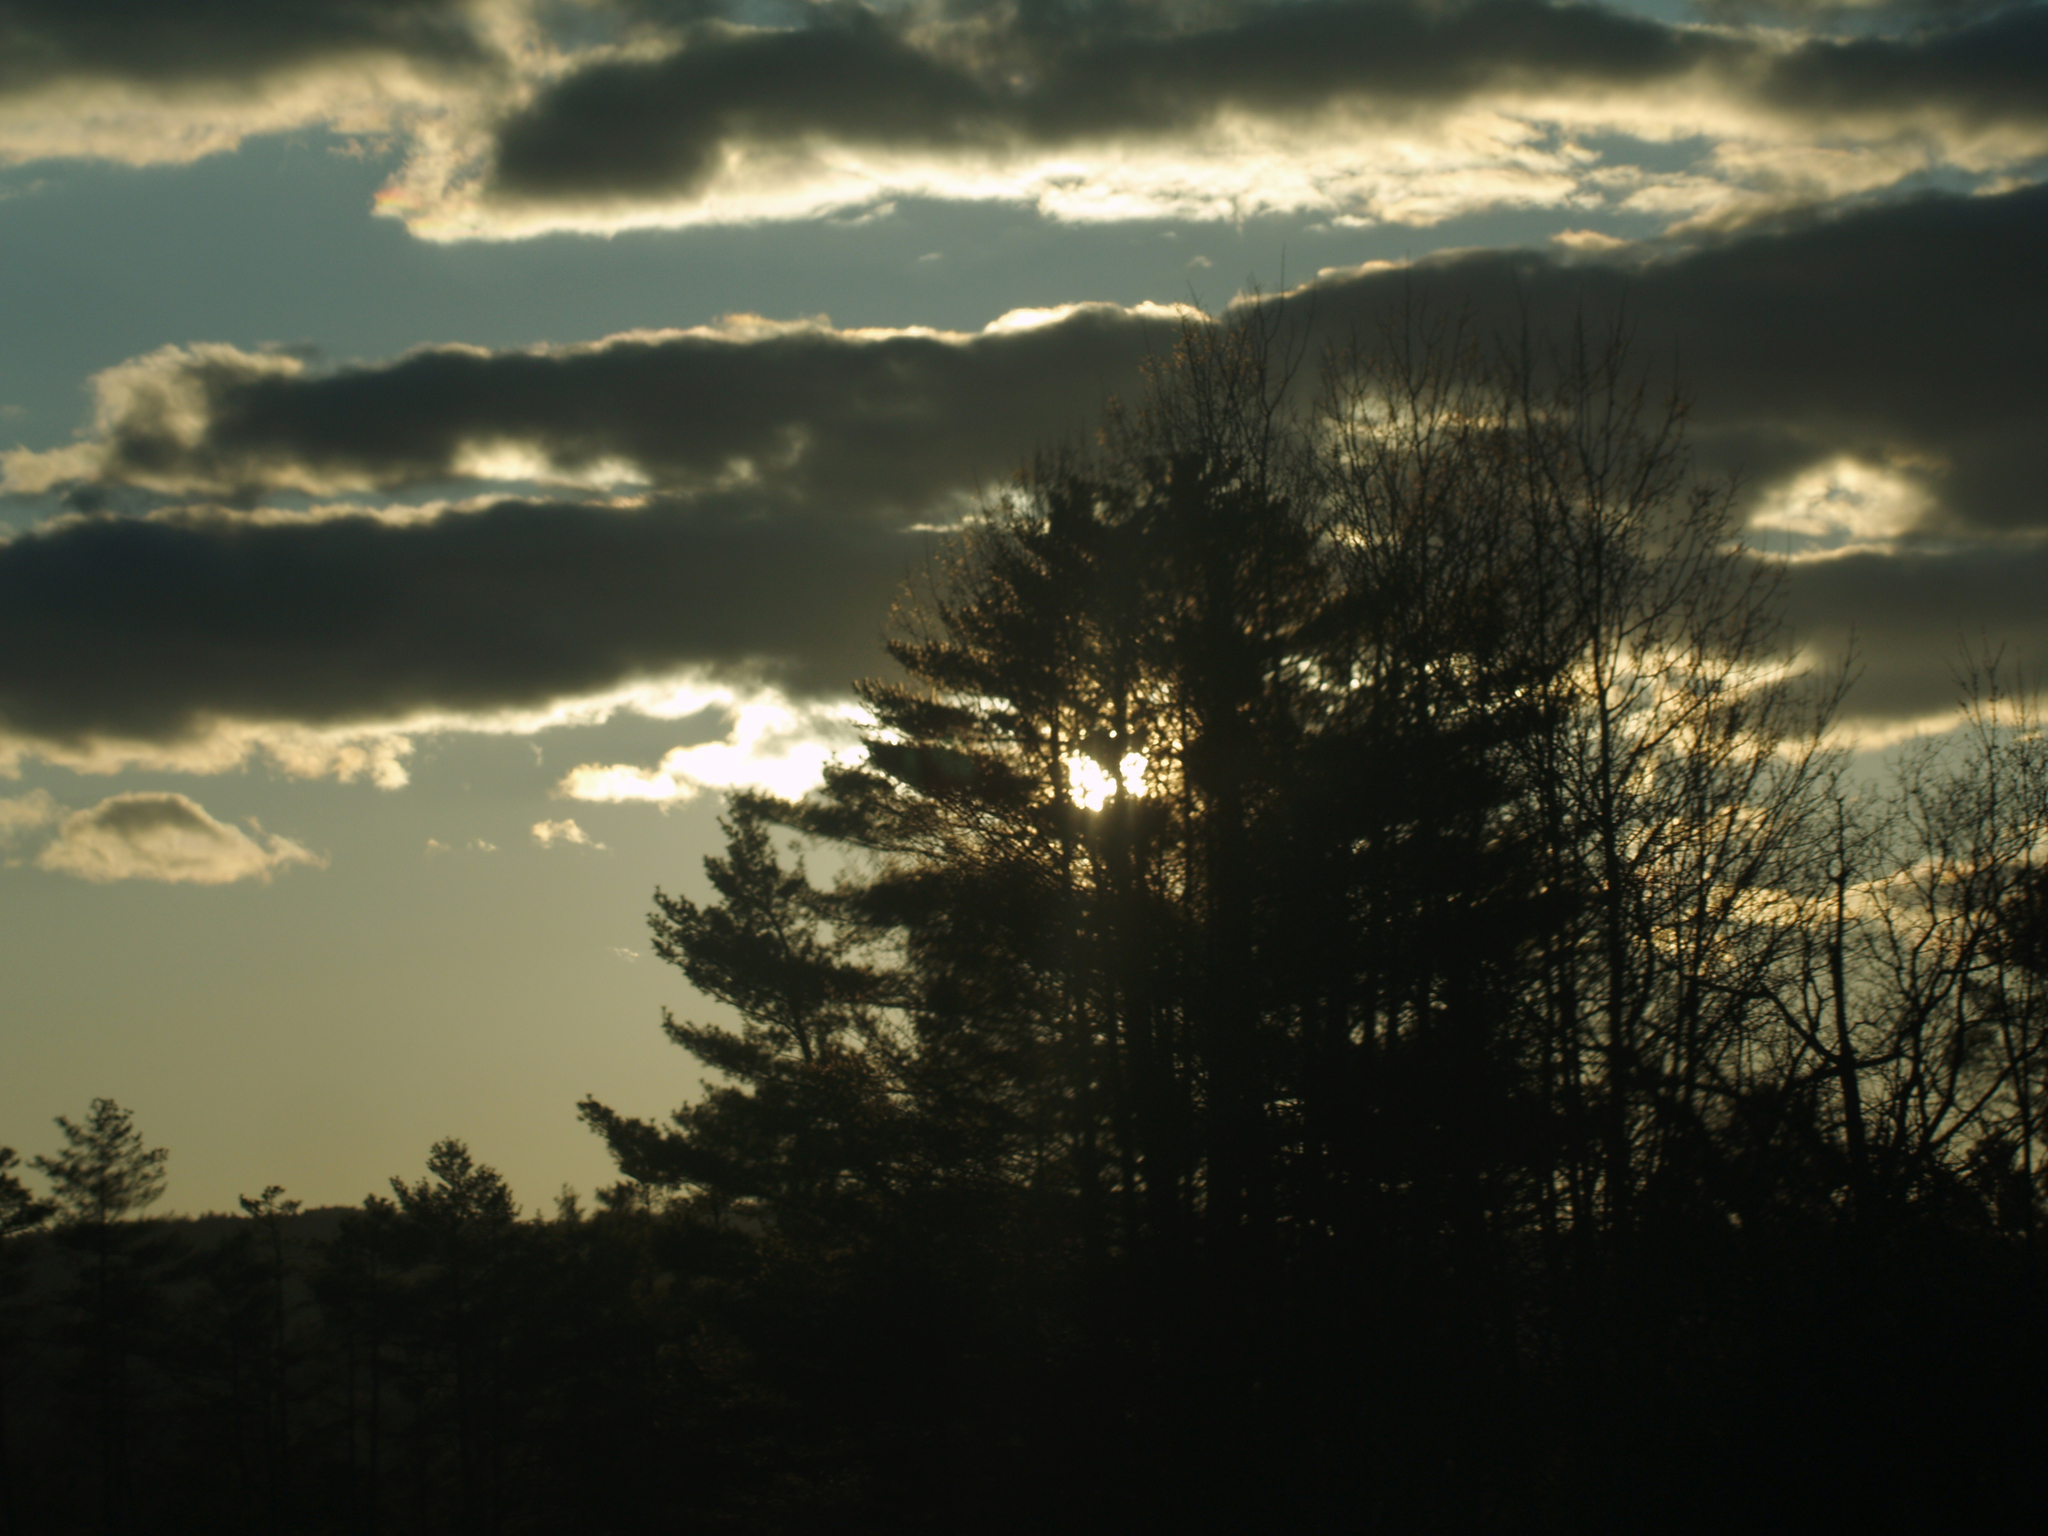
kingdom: Plantae
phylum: Tracheophyta
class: Pinopsida
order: Pinales
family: Pinaceae
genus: Pinus
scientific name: Pinus strobus
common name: Weymouth pine
